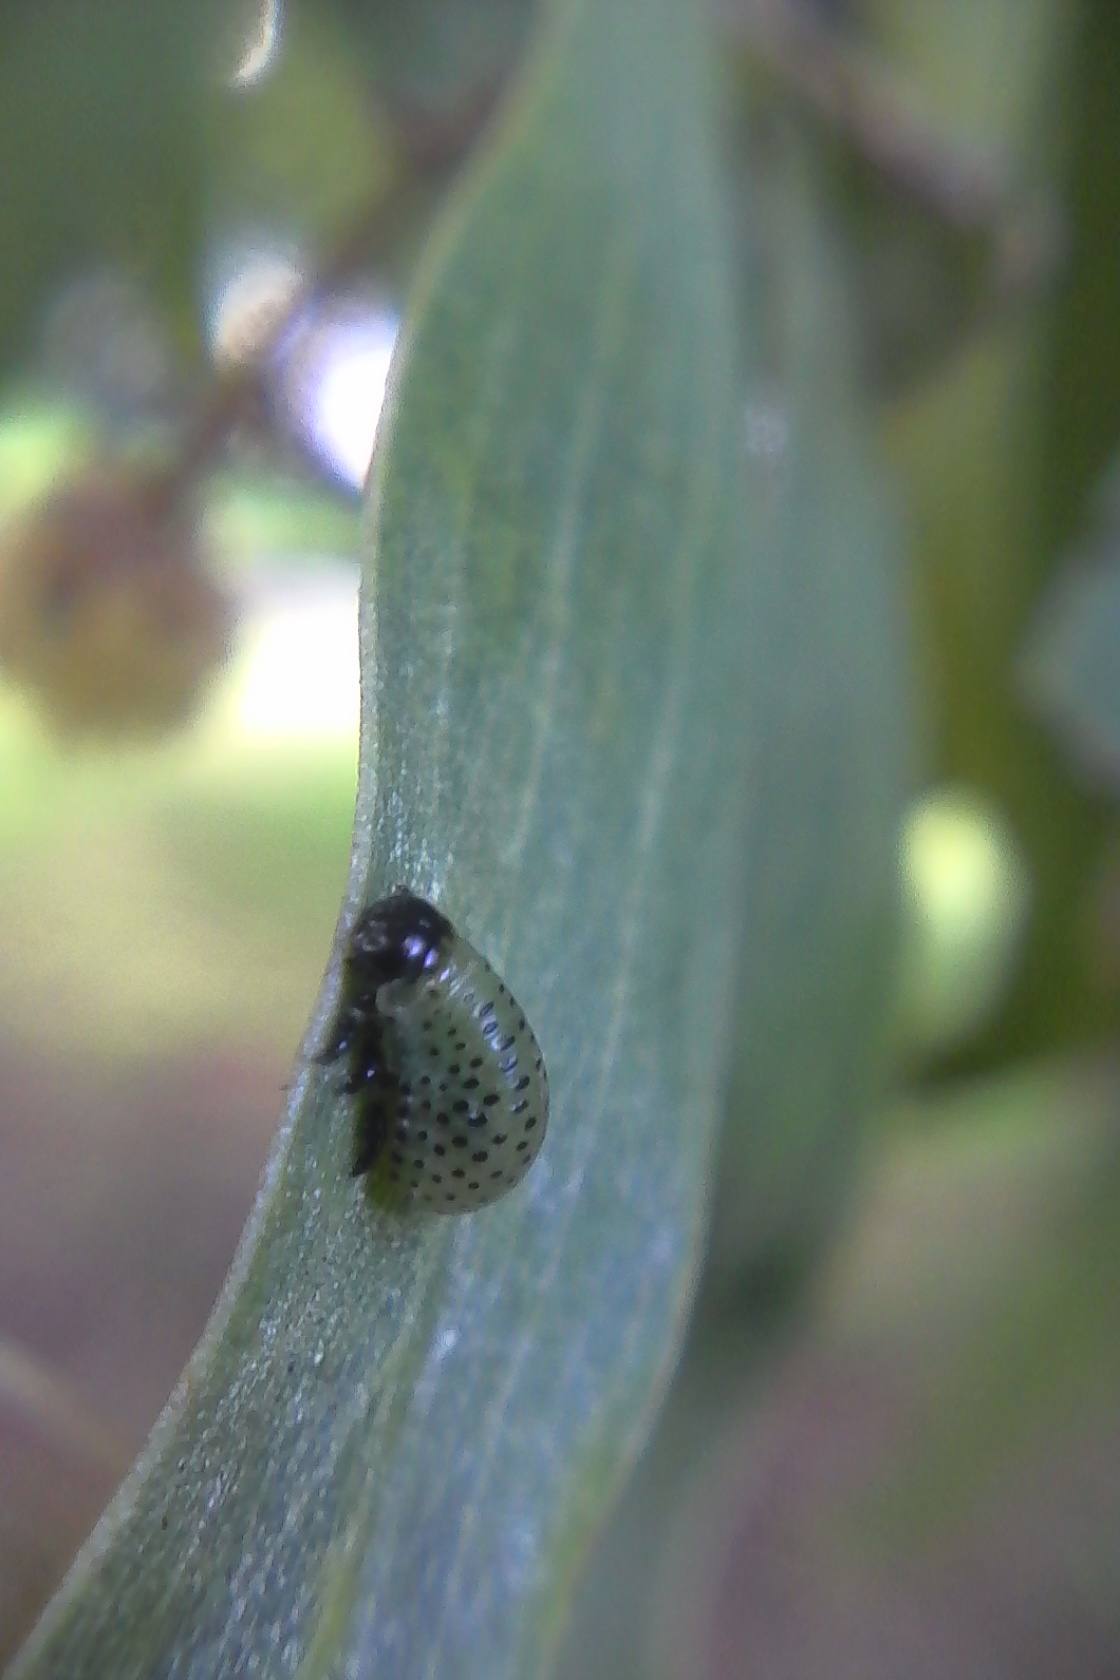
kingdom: Animalia
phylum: Arthropoda
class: Insecta
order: Coleoptera
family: Chrysomelidae
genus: Dicranosterna
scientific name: Dicranosterna
